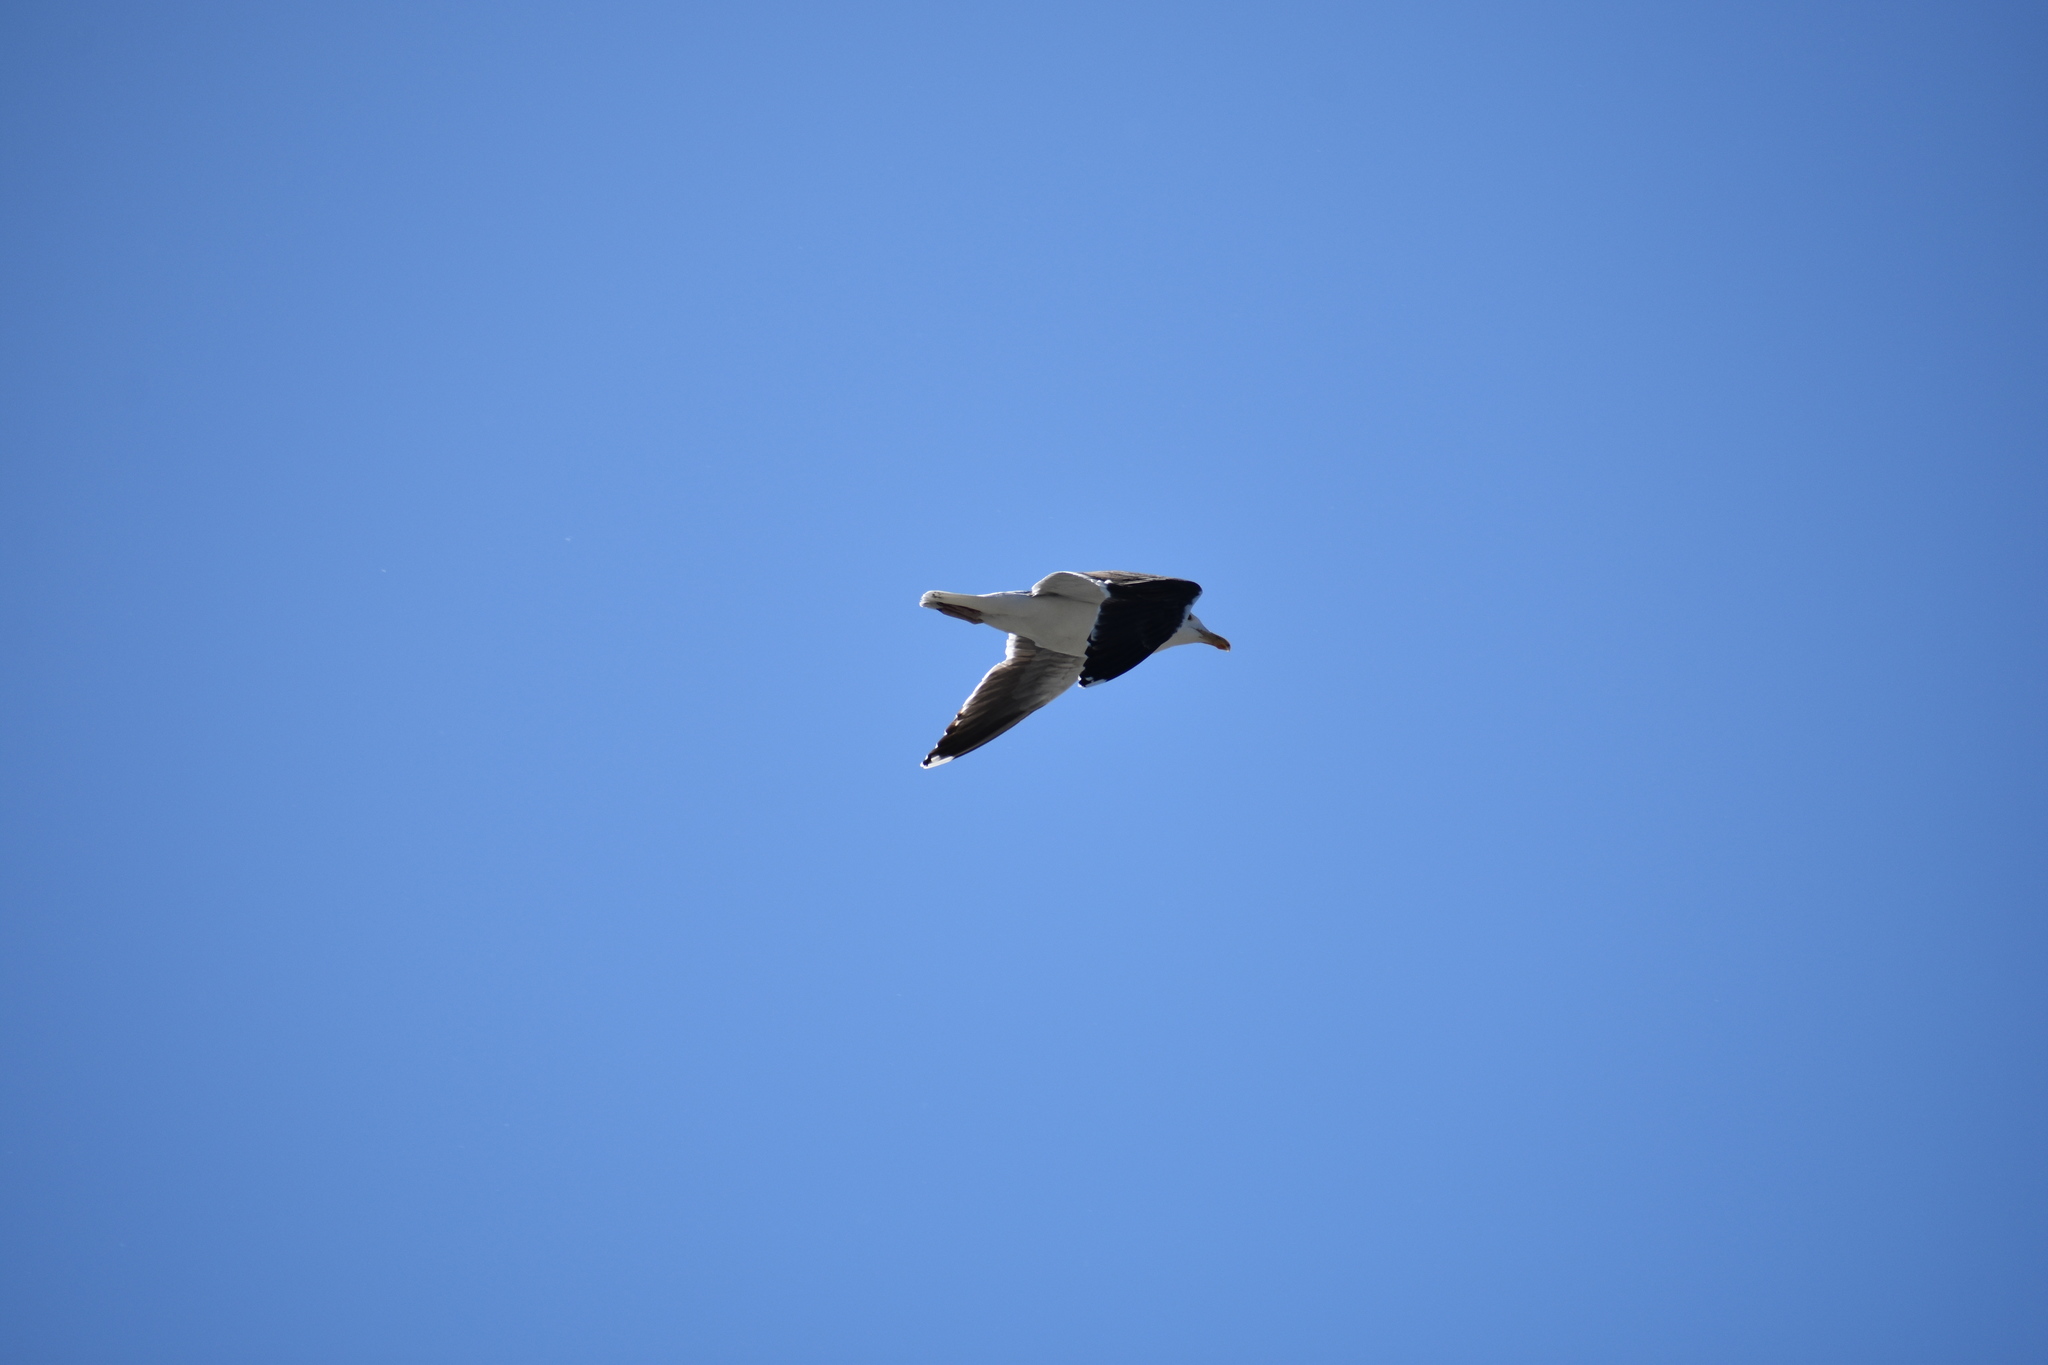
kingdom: Animalia
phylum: Chordata
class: Aves
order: Charadriiformes
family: Laridae
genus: Larus
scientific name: Larus marinus
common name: Great black-backed gull
